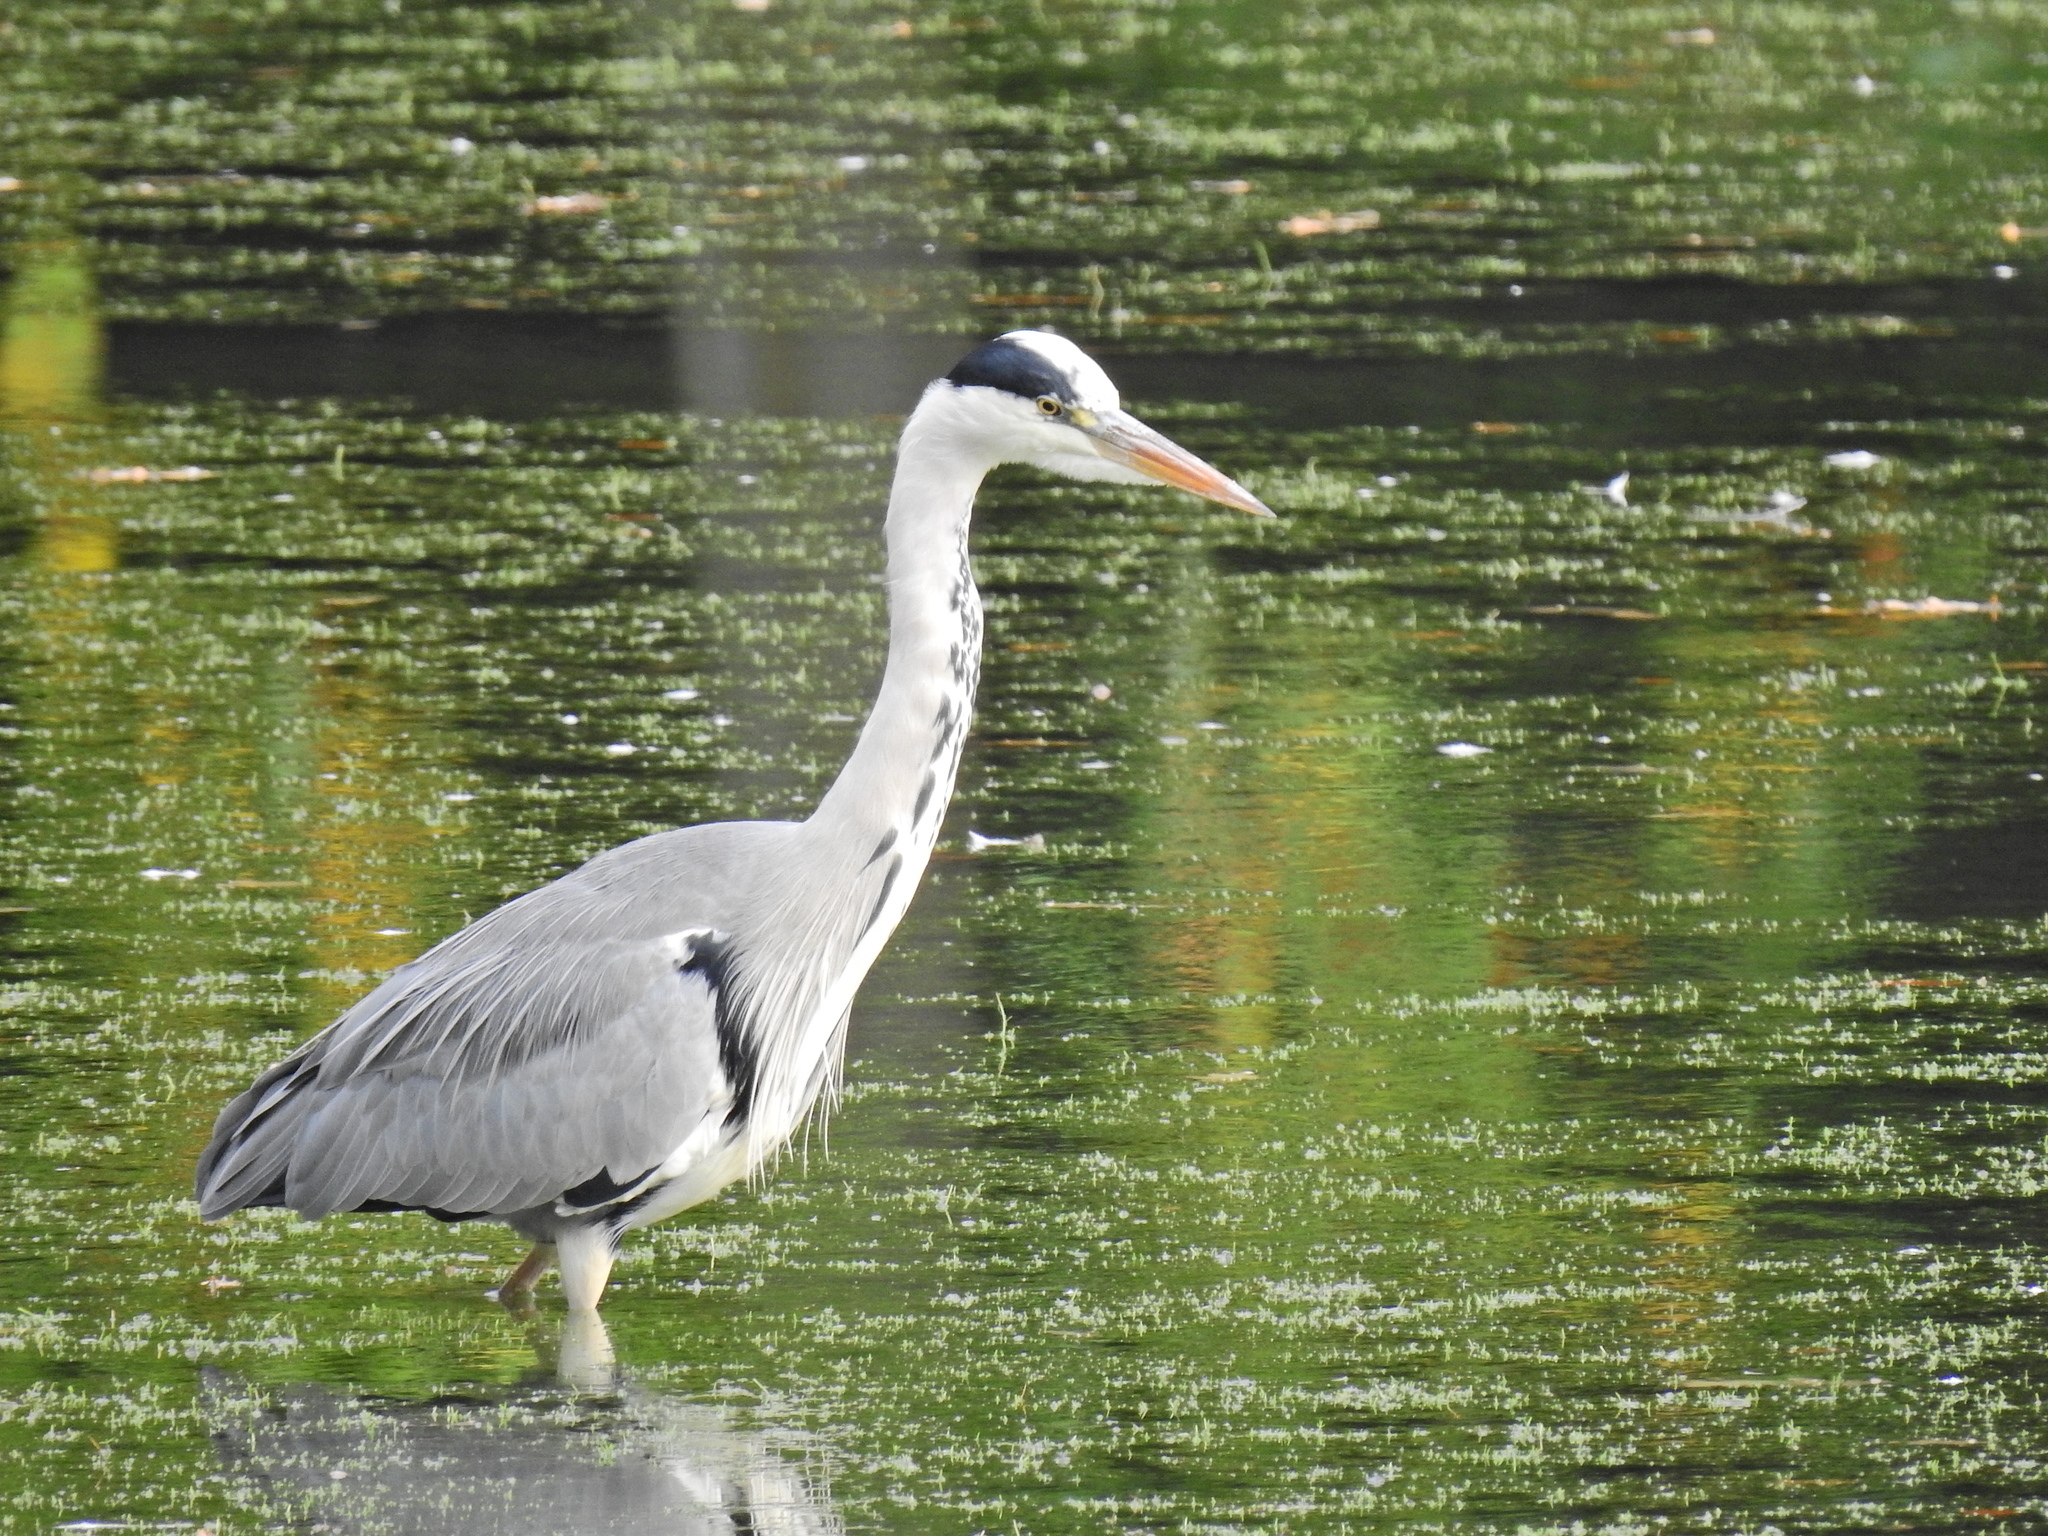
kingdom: Animalia
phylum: Chordata
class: Aves
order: Pelecaniformes
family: Ardeidae
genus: Ardea
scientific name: Ardea cinerea
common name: Grey heron
